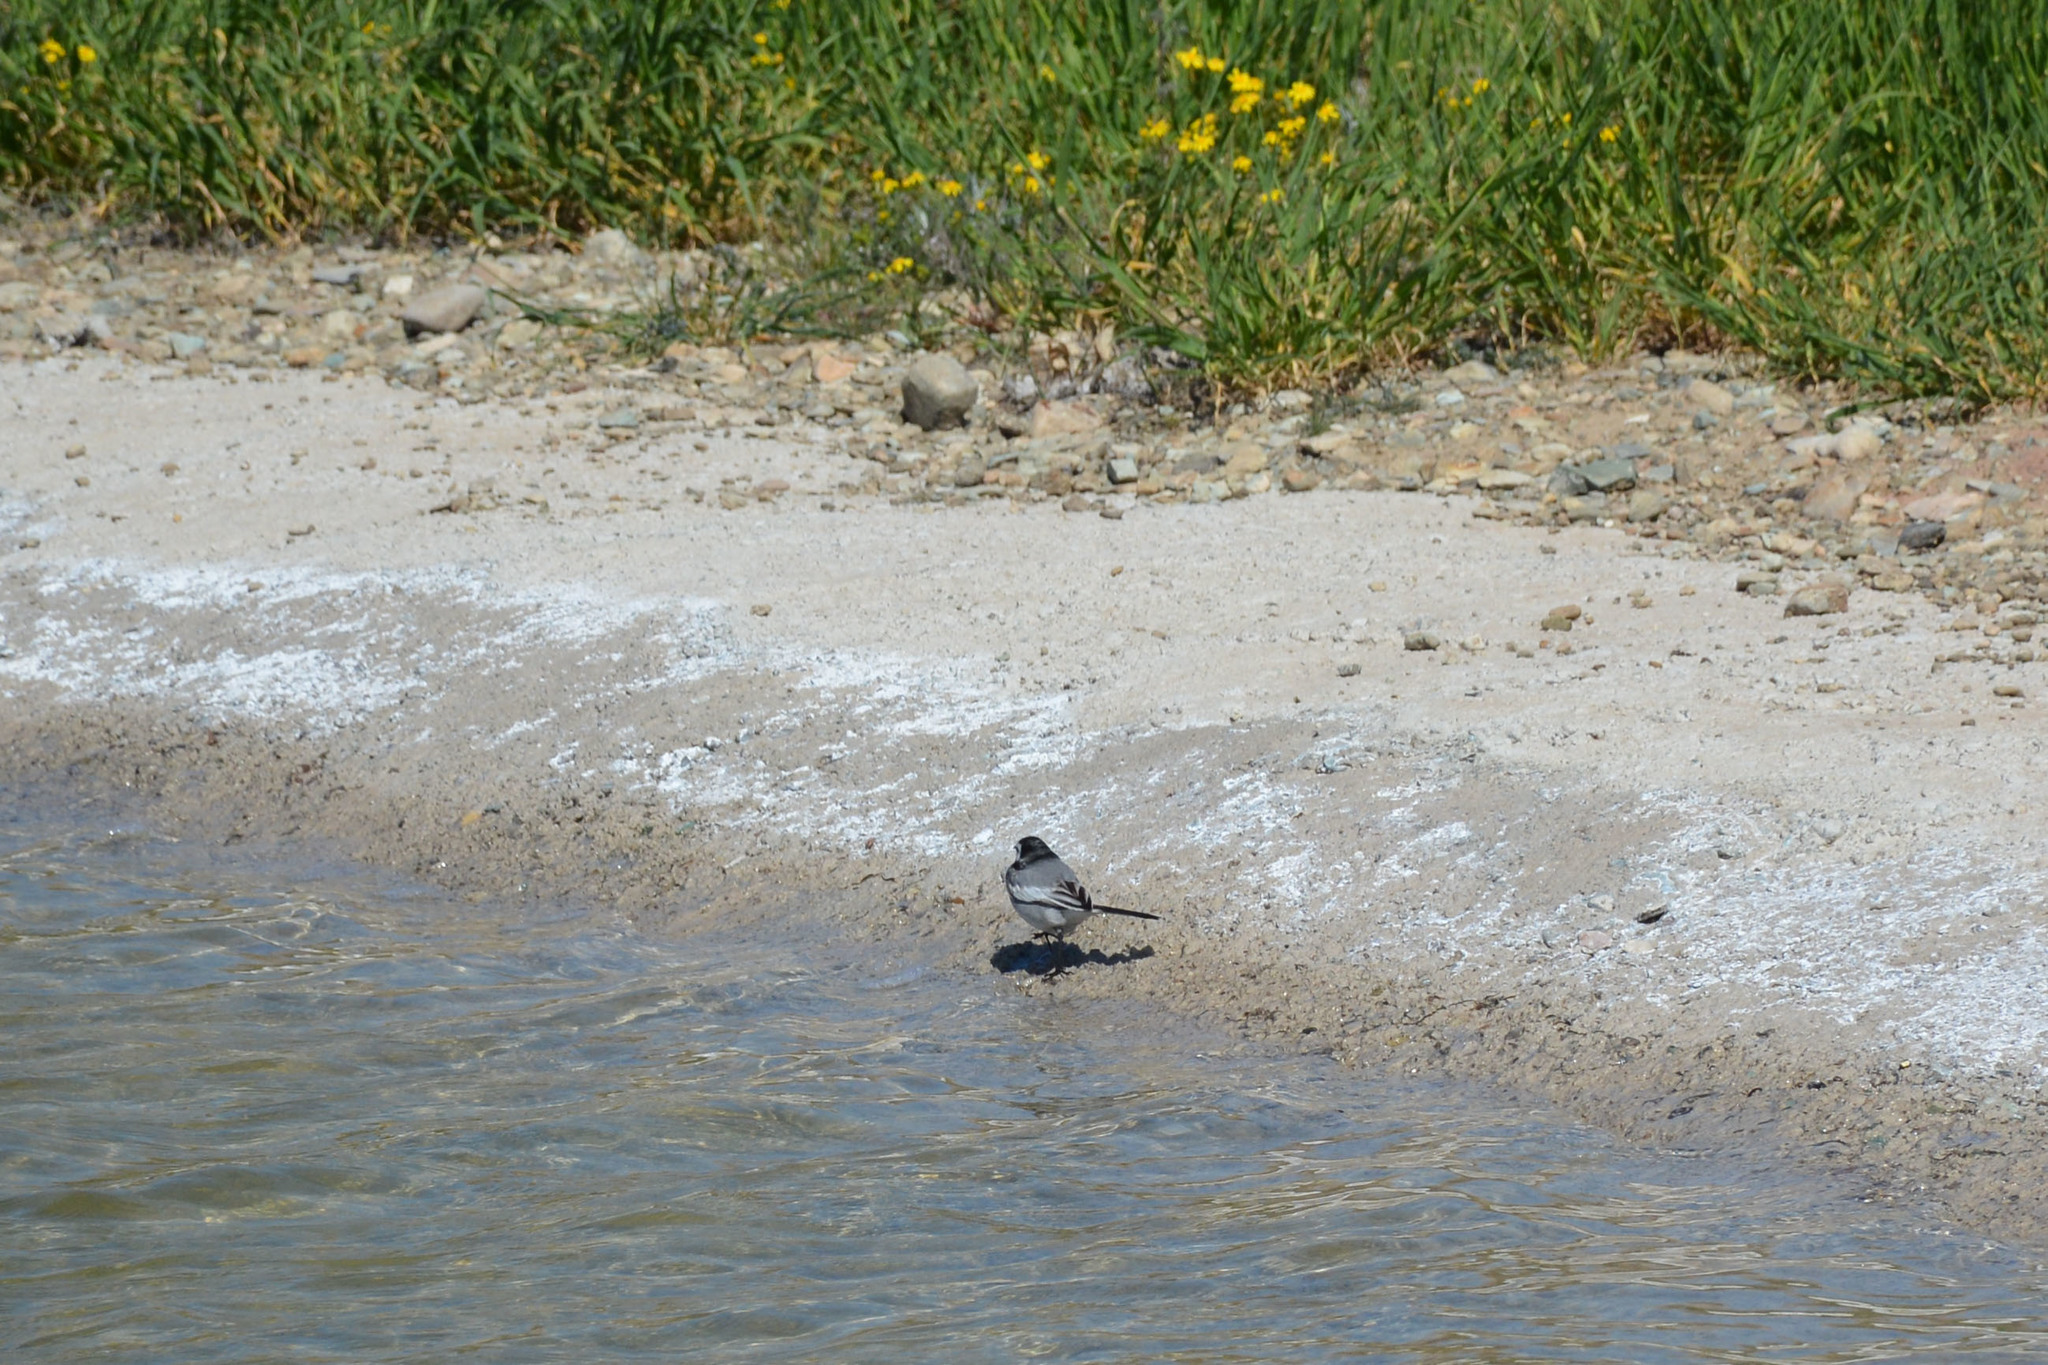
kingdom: Animalia
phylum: Chordata
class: Aves
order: Passeriformes
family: Motacillidae
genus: Motacilla
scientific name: Motacilla alba
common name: White wagtail
